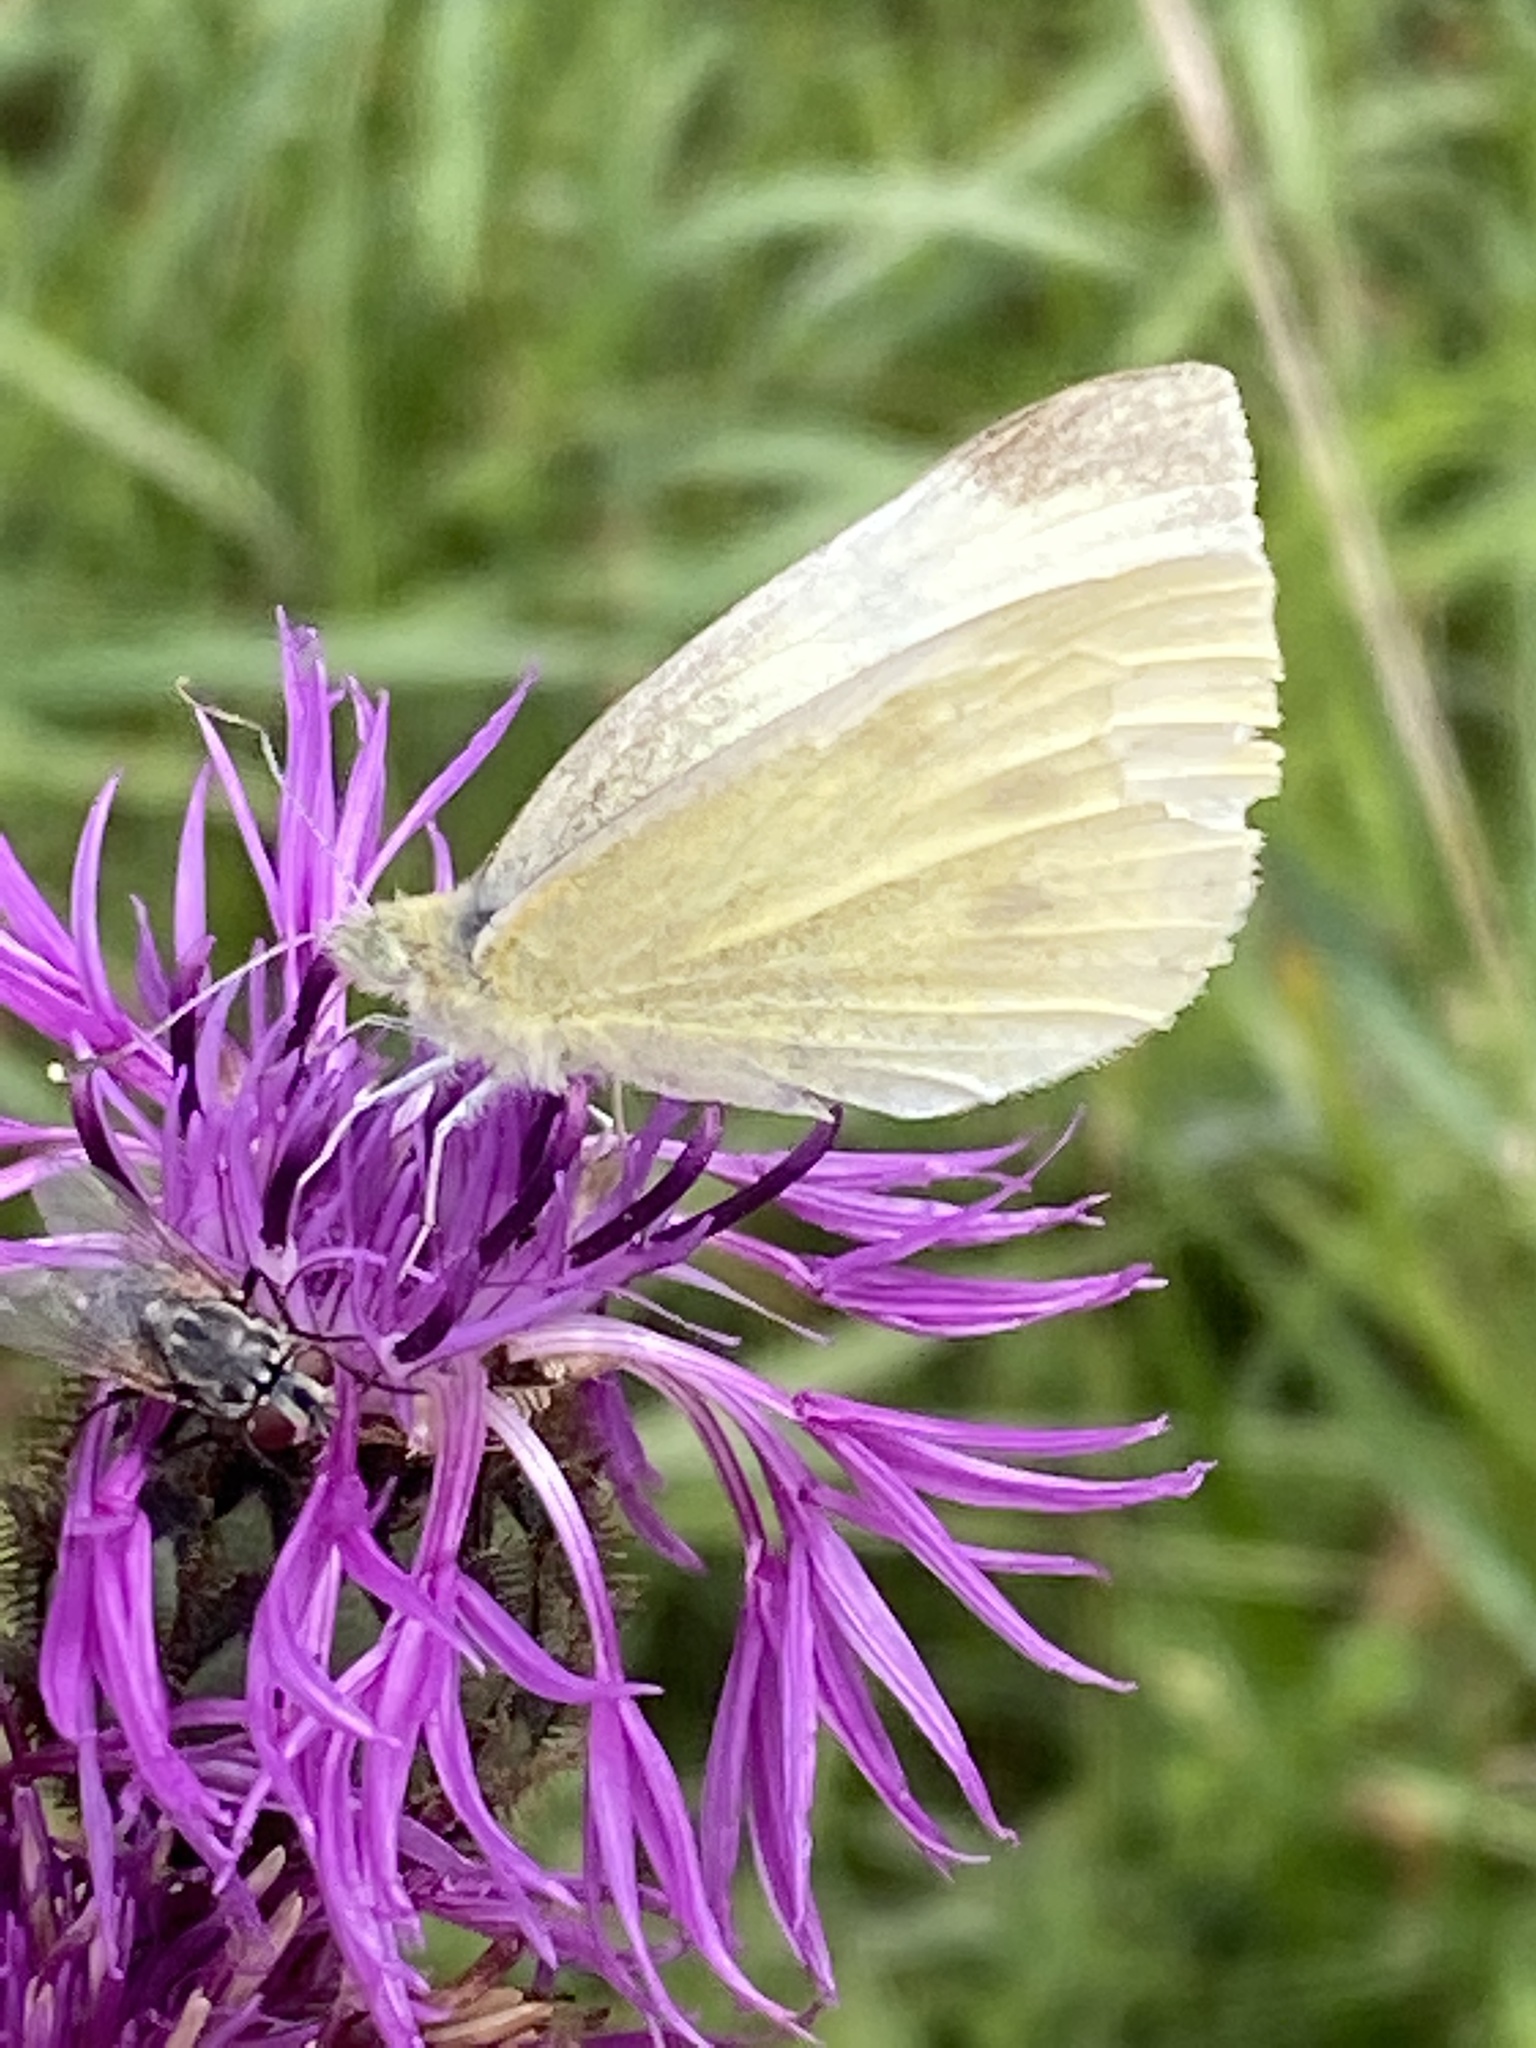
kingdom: Animalia
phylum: Arthropoda
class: Insecta
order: Lepidoptera
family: Pieridae
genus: Pieris
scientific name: Pieris rapae
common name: Small white
